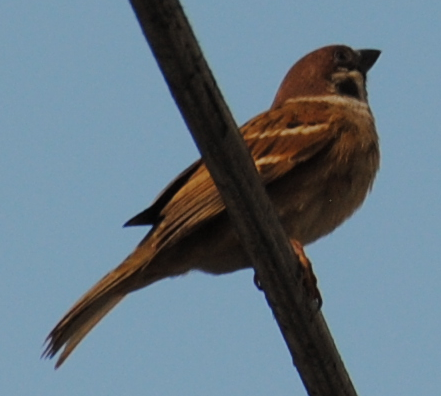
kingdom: Animalia
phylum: Chordata
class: Aves
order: Passeriformes
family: Passeridae
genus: Passer
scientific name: Passer montanus
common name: Eurasian tree sparrow
